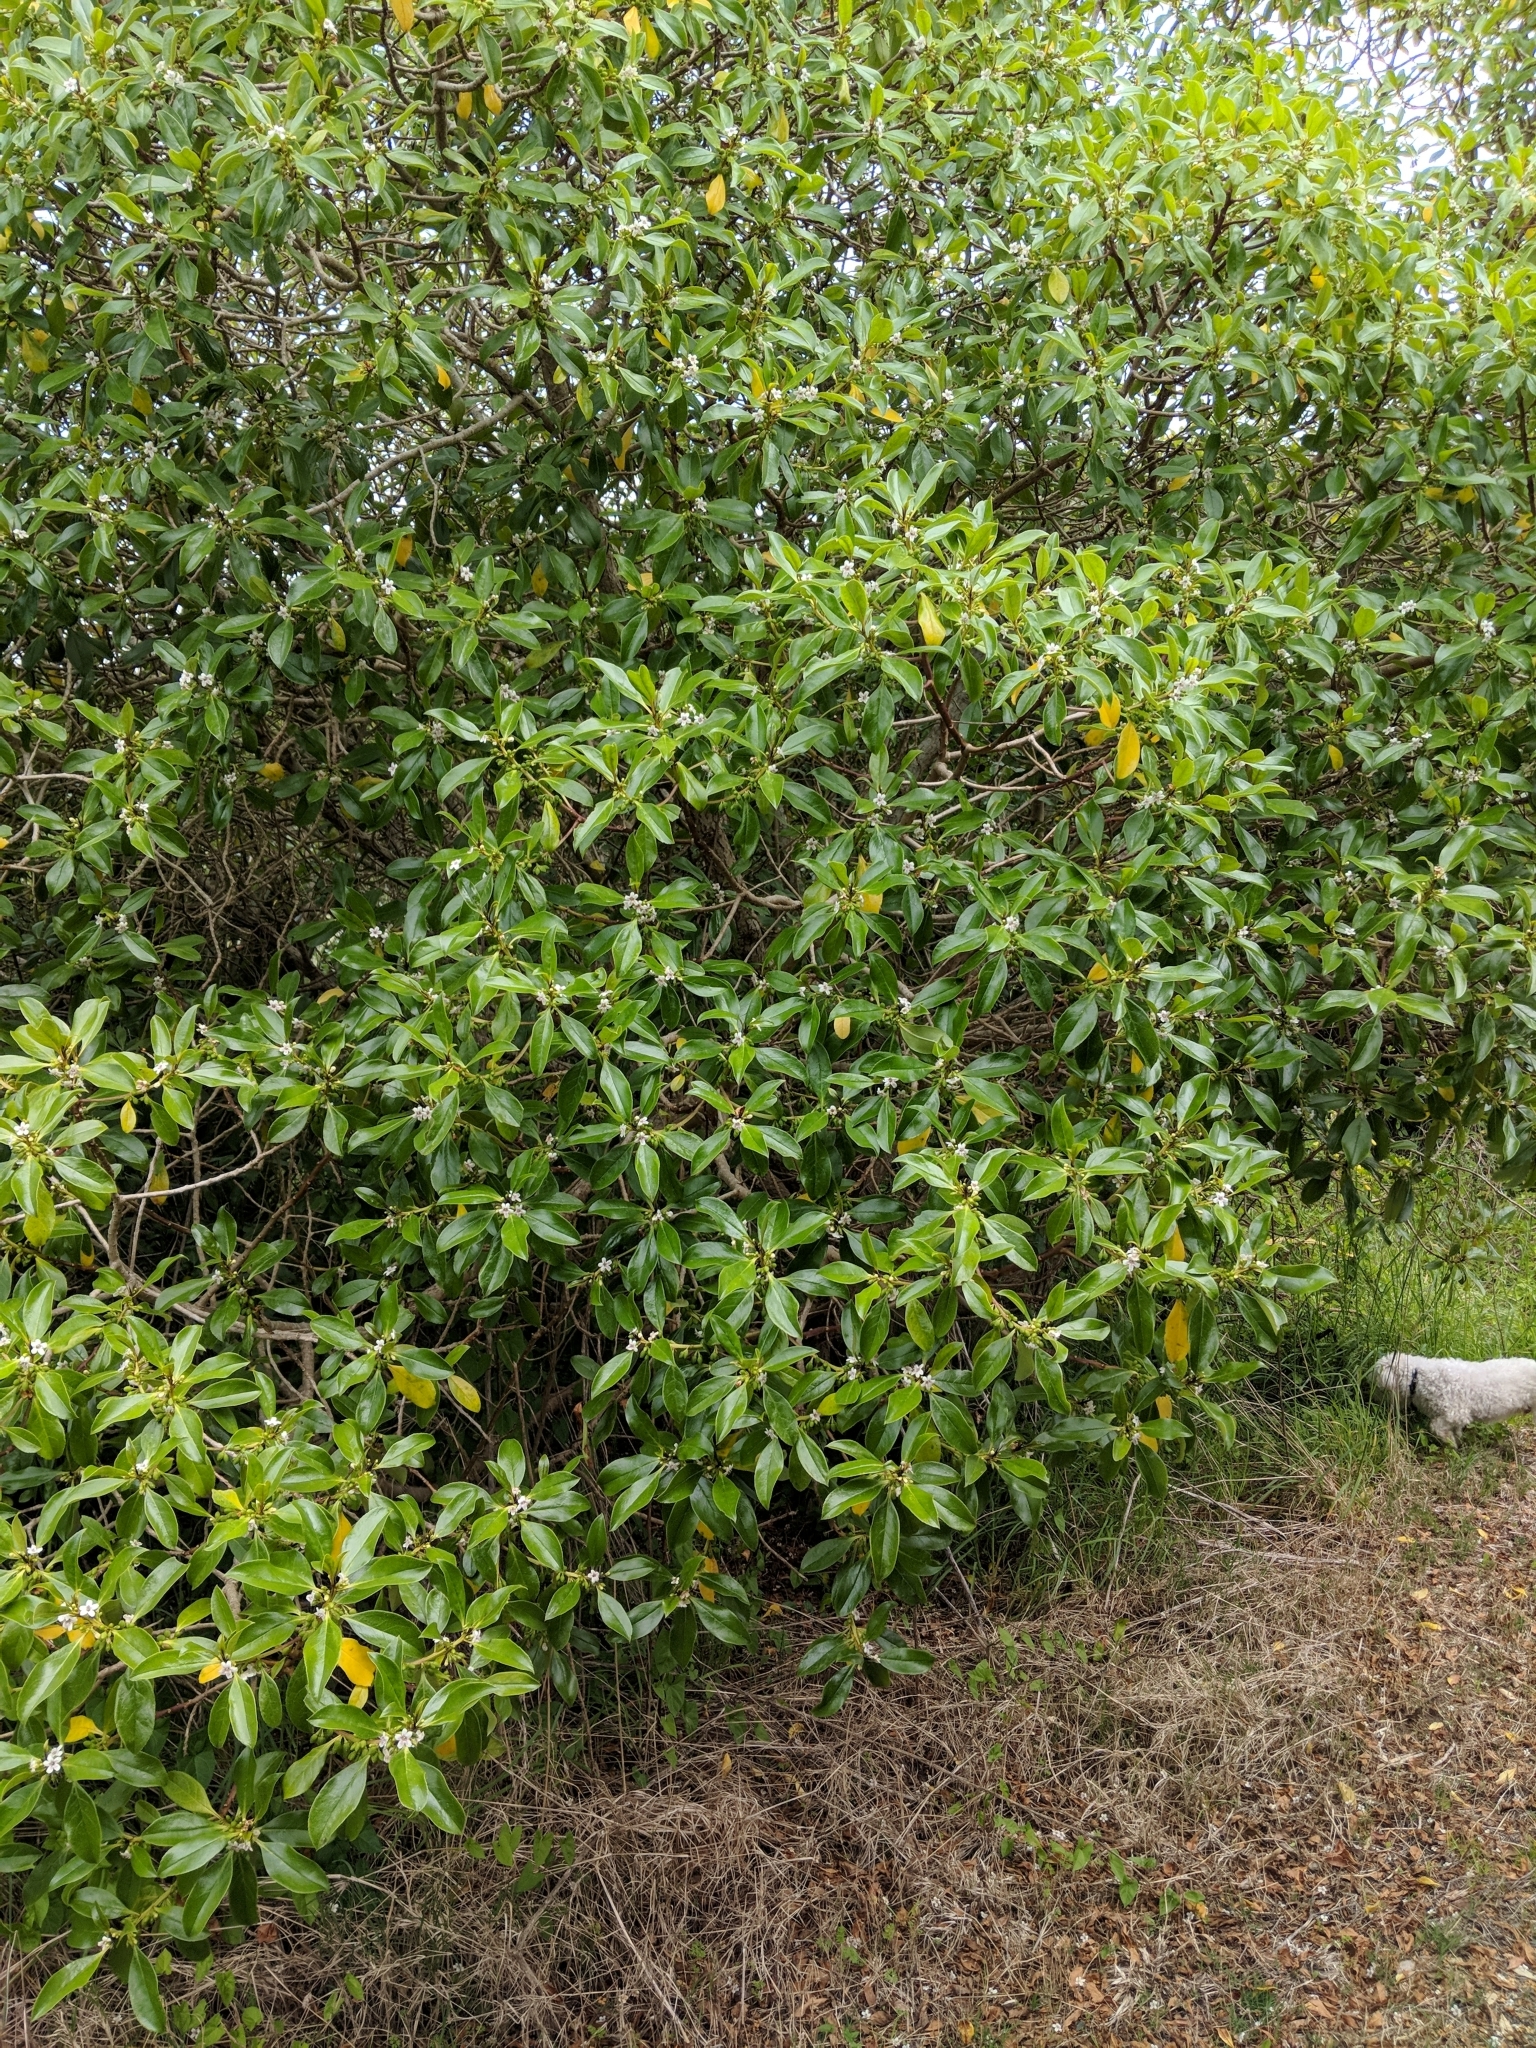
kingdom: Plantae
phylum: Tracheophyta
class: Magnoliopsida
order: Lamiales
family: Scrophulariaceae
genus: Myoporum
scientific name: Myoporum laetum
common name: Ngaio tree
